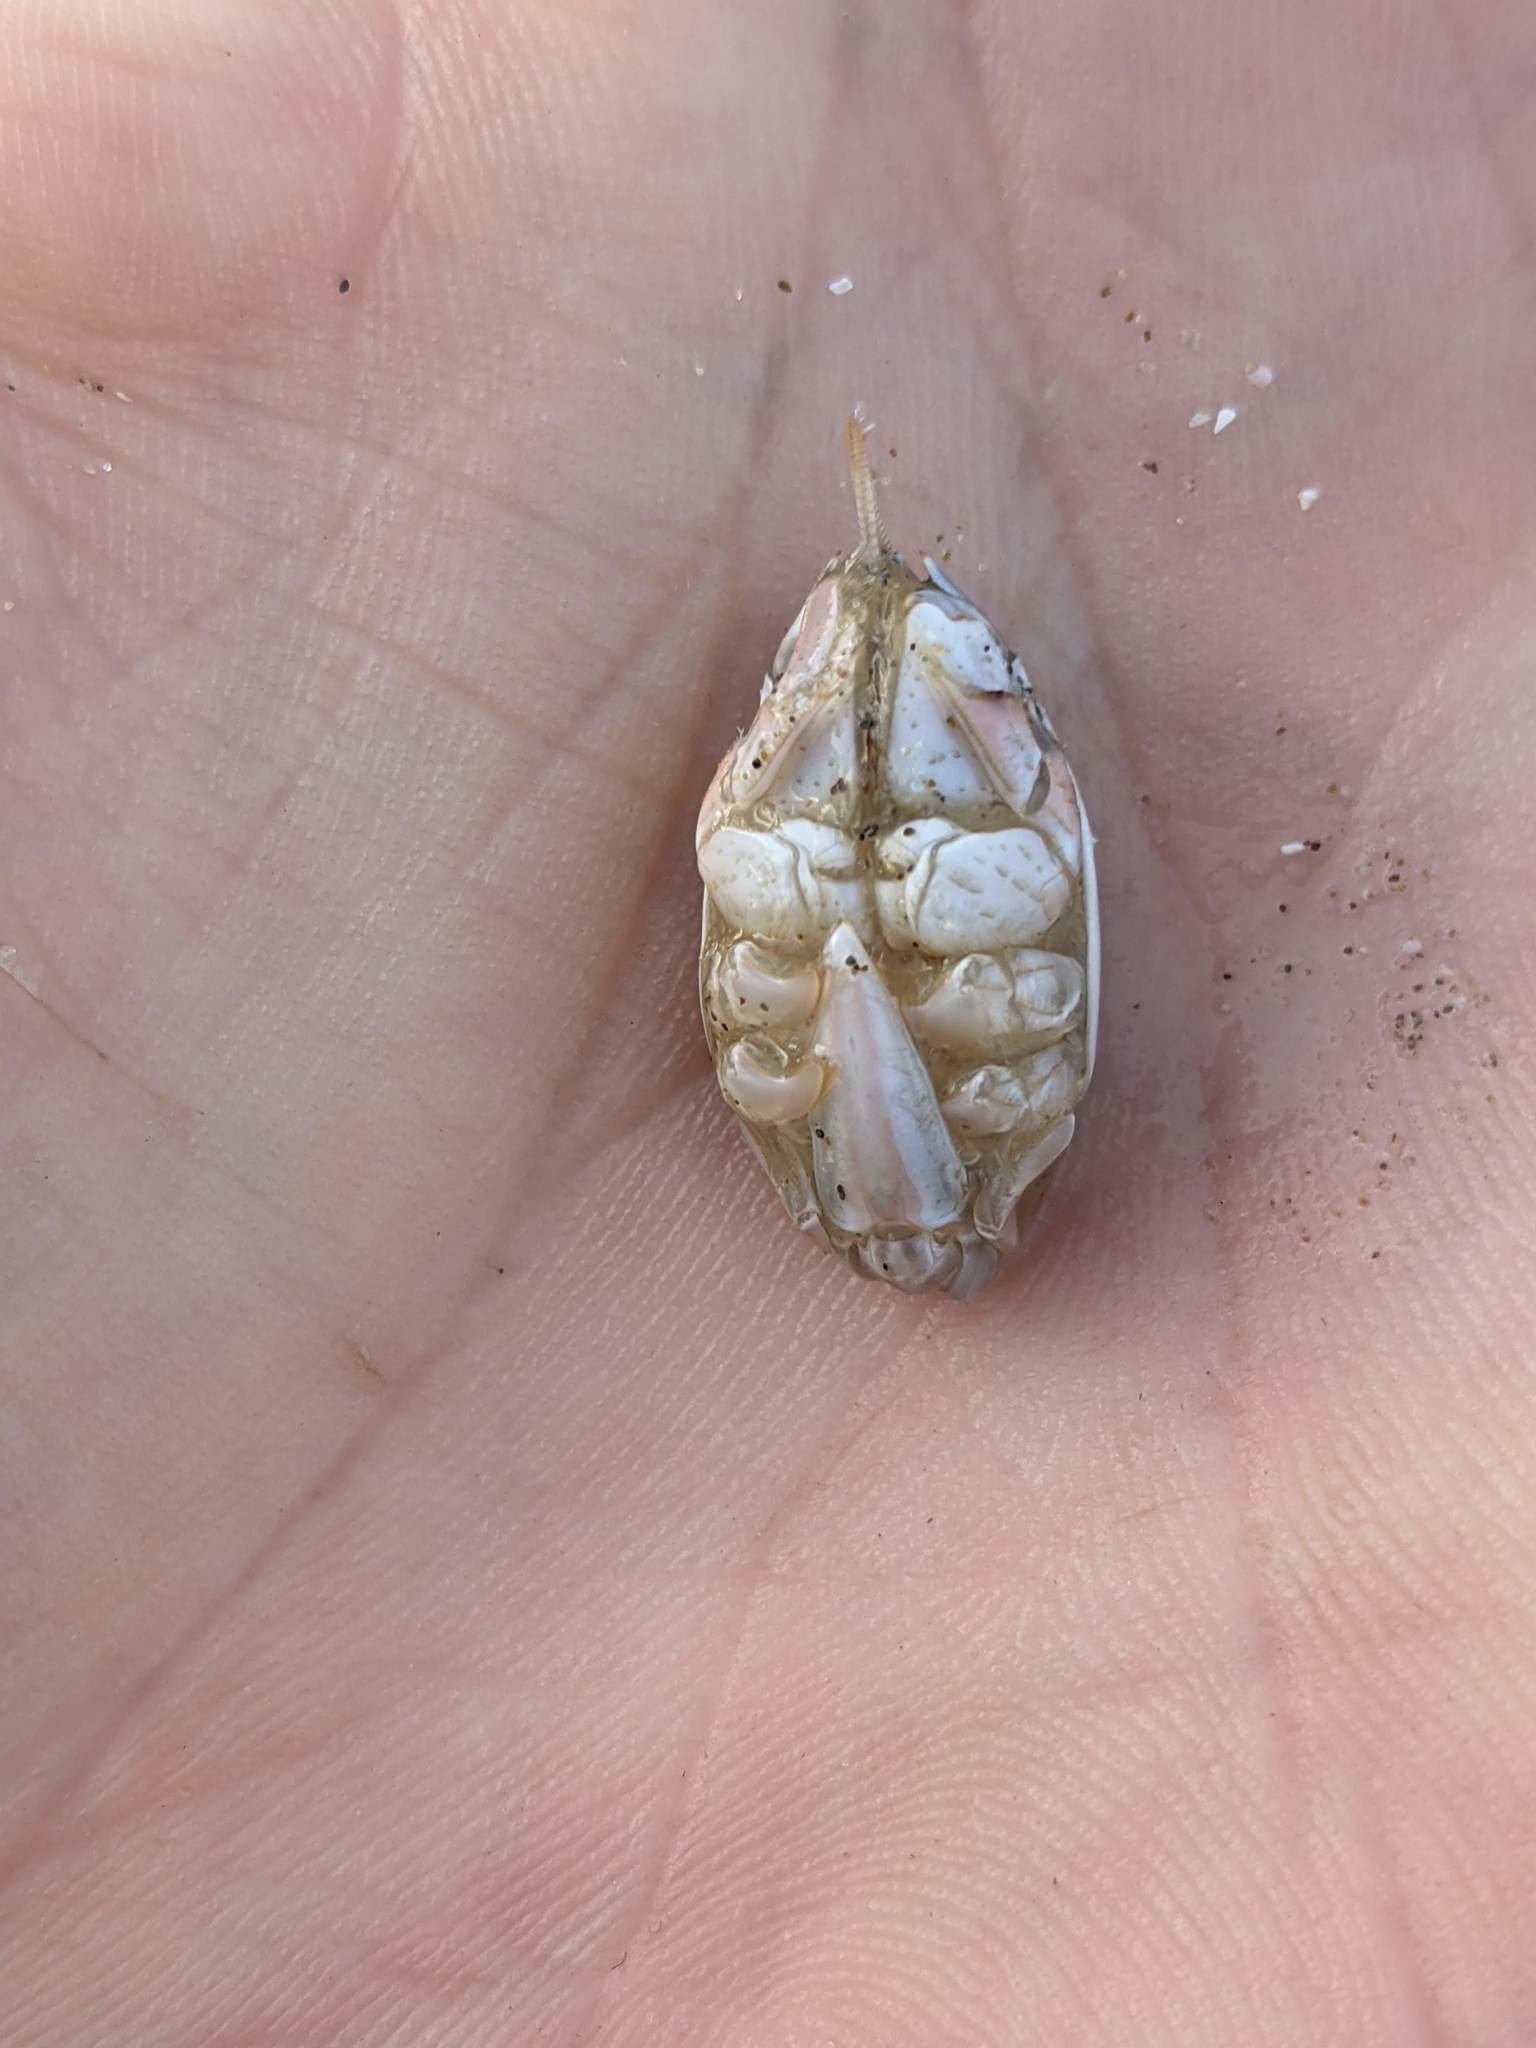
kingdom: Animalia
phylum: Arthropoda
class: Malacostraca
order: Decapoda
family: Hippidae
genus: Emerita
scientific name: Emerita analoga
